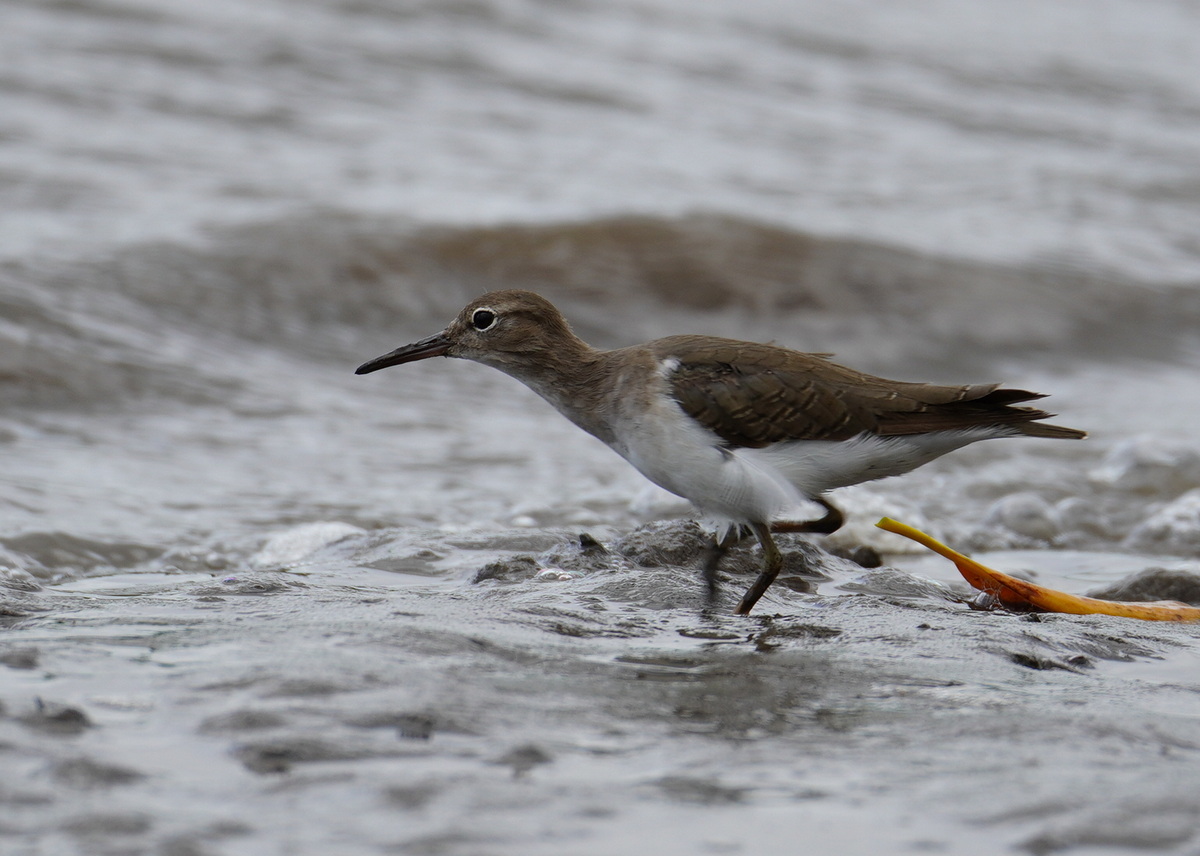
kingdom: Animalia
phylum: Chordata
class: Aves
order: Charadriiformes
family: Scolopacidae
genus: Actitis
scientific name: Actitis macularius
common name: Spotted sandpiper
